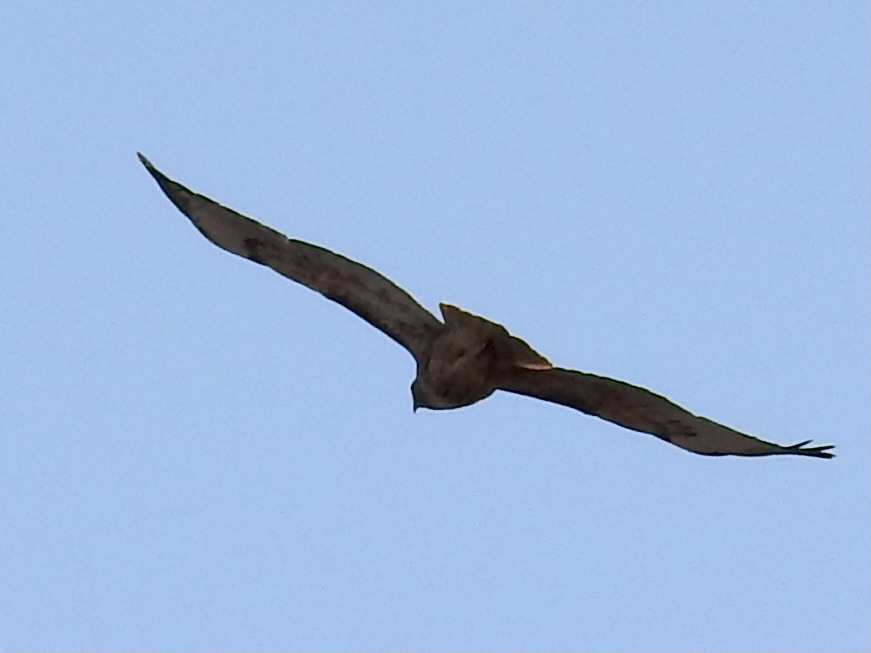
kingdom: Animalia
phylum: Chordata
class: Aves
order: Accipitriformes
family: Accipitridae
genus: Buteo
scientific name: Buteo jamaicensis
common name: Red-tailed hawk
